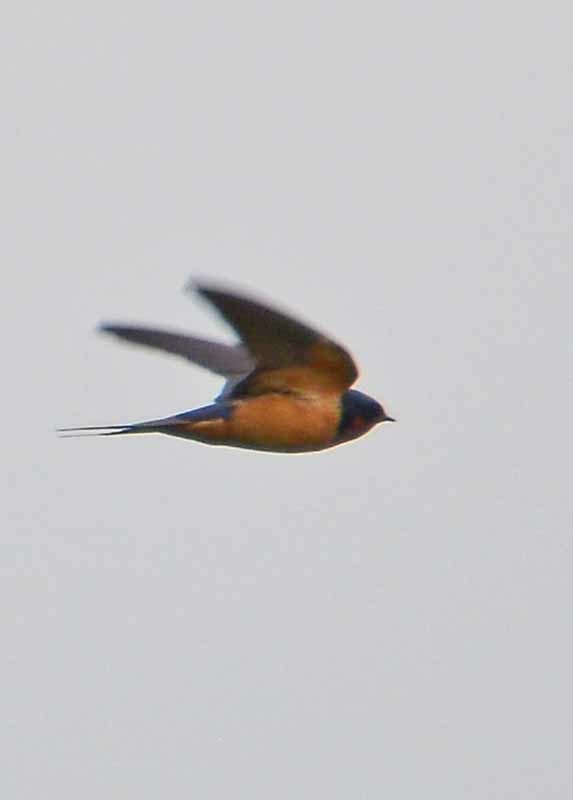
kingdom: Animalia
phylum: Chordata
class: Aves
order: Passeriformes
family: Hirundinidae
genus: Hirundo
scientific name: Hirundo rustica
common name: Barn swallow
